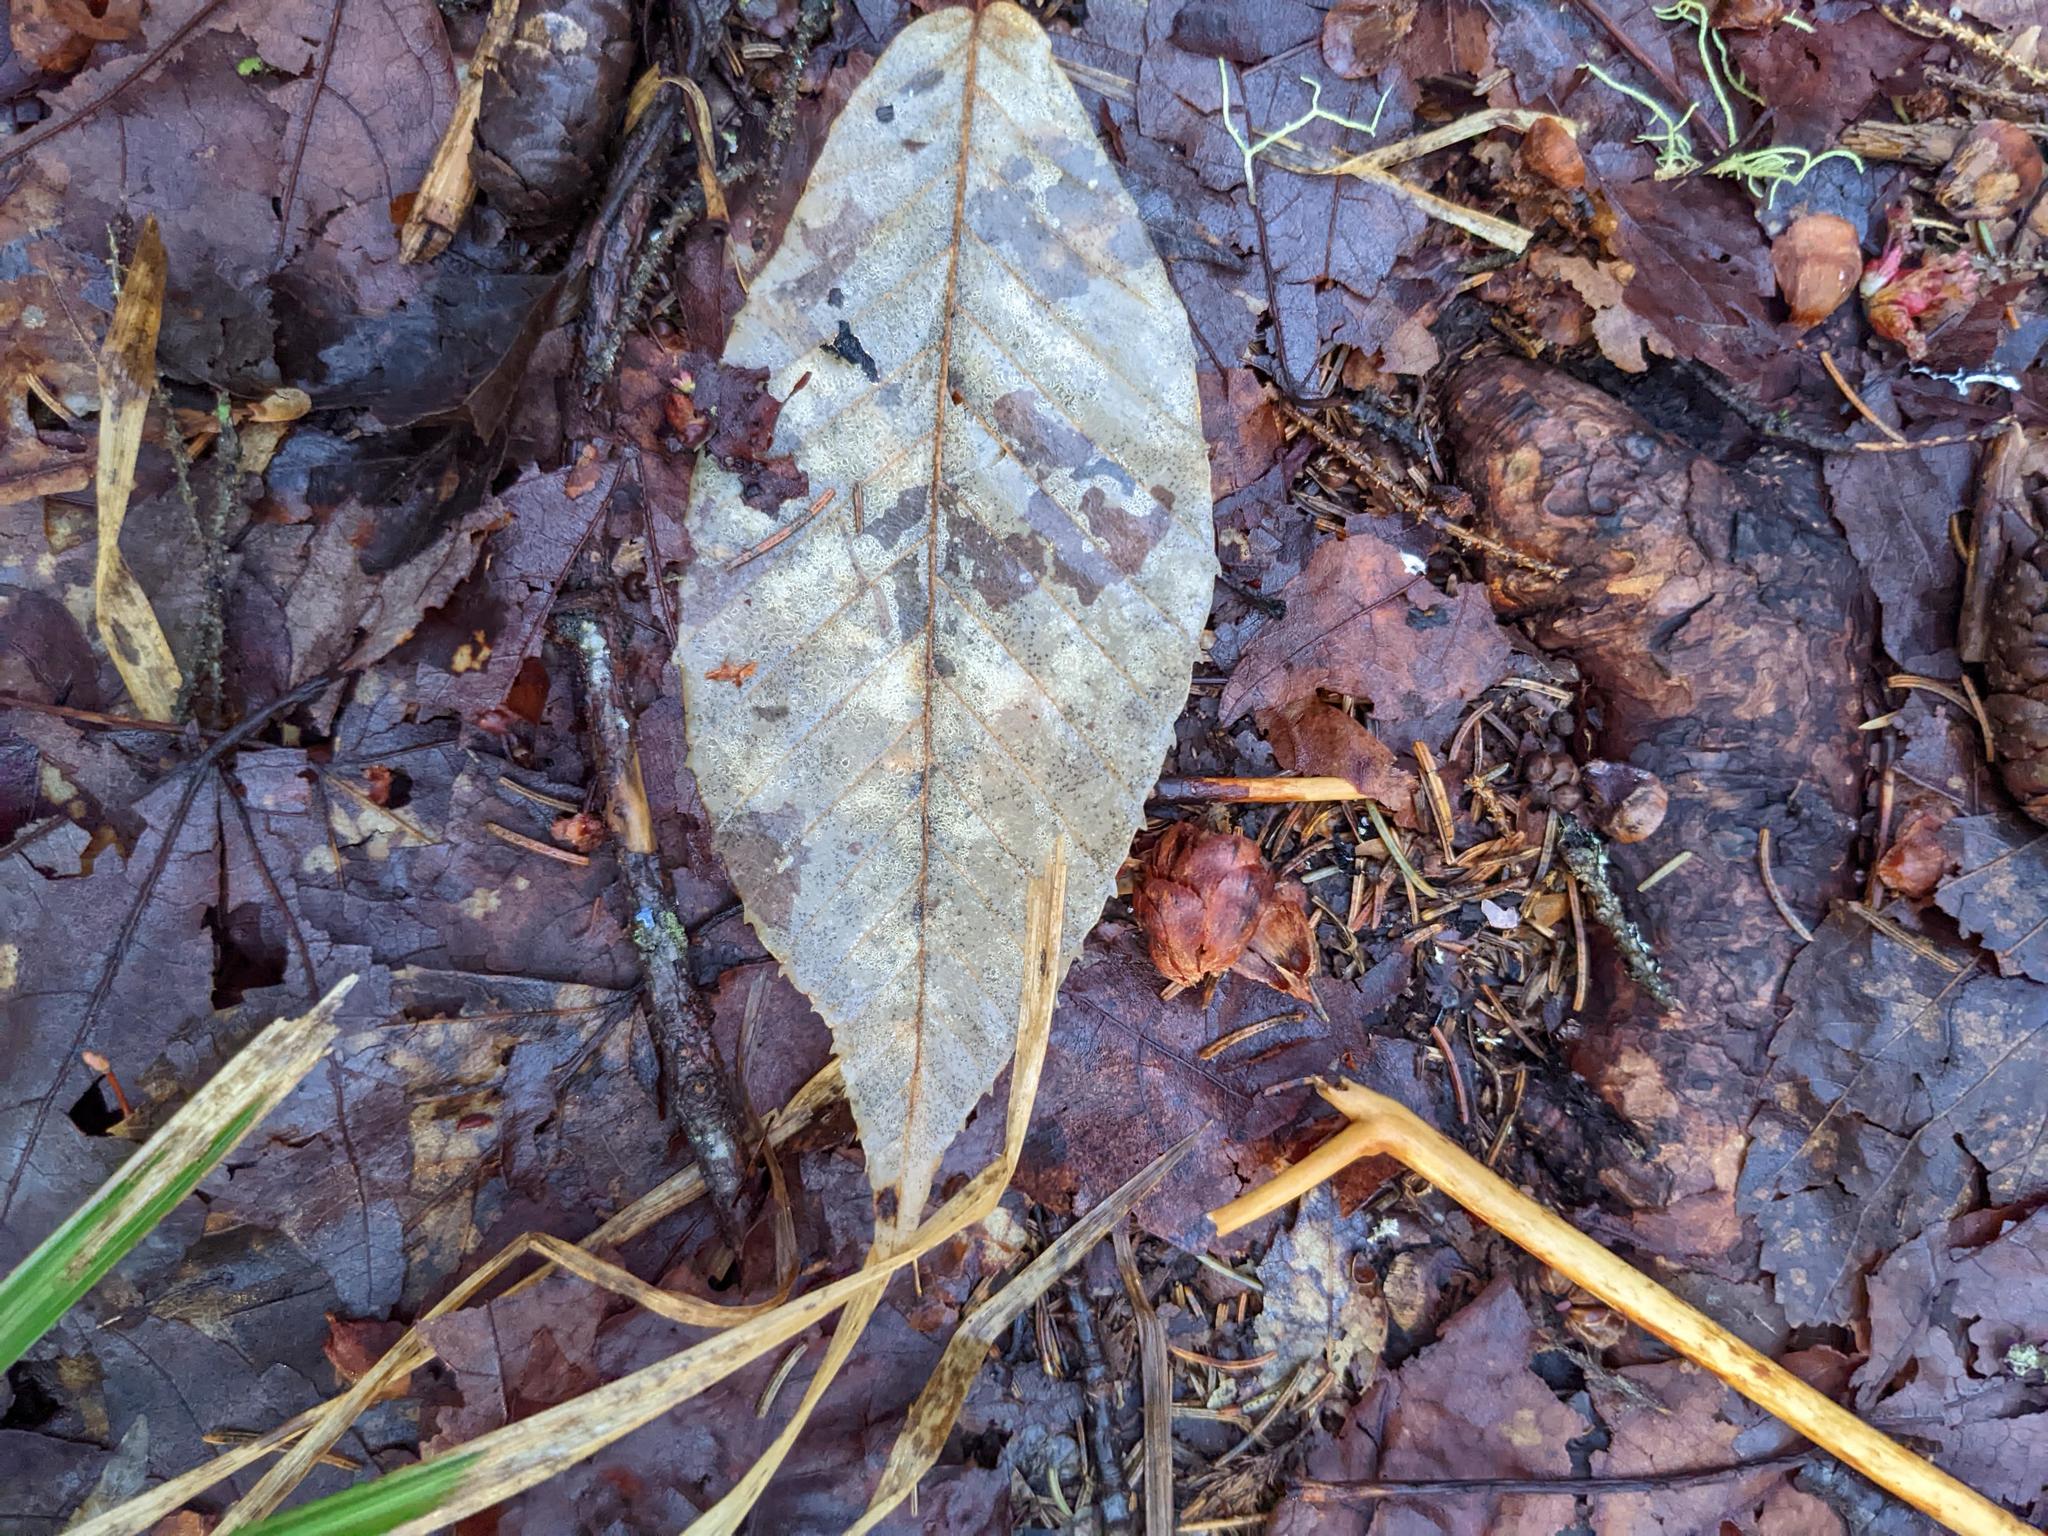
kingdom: Plantae
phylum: Tracheophyta
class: Magnoliopsida
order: Fagales
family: Fagaceae
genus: Fagus
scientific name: Fagus grandifolia
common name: American beech
